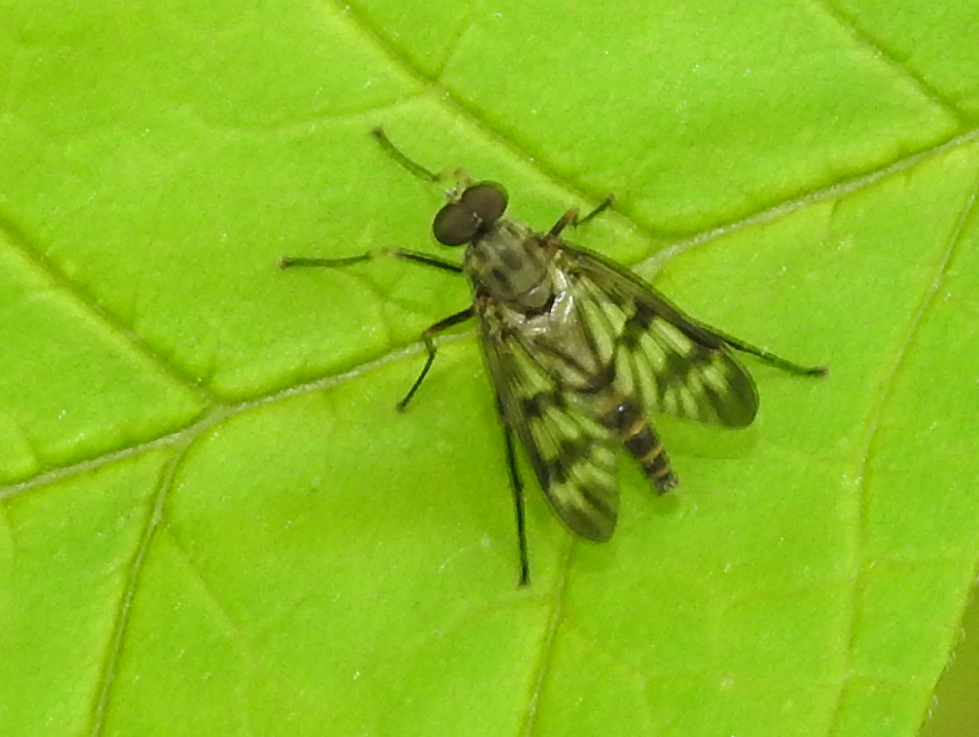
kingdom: Animalia
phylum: Arthropoda
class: Insecta
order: Diptera
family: Rhagionidae
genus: Rhagio
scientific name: Rhagio mystaceus
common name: Common snipe fly
